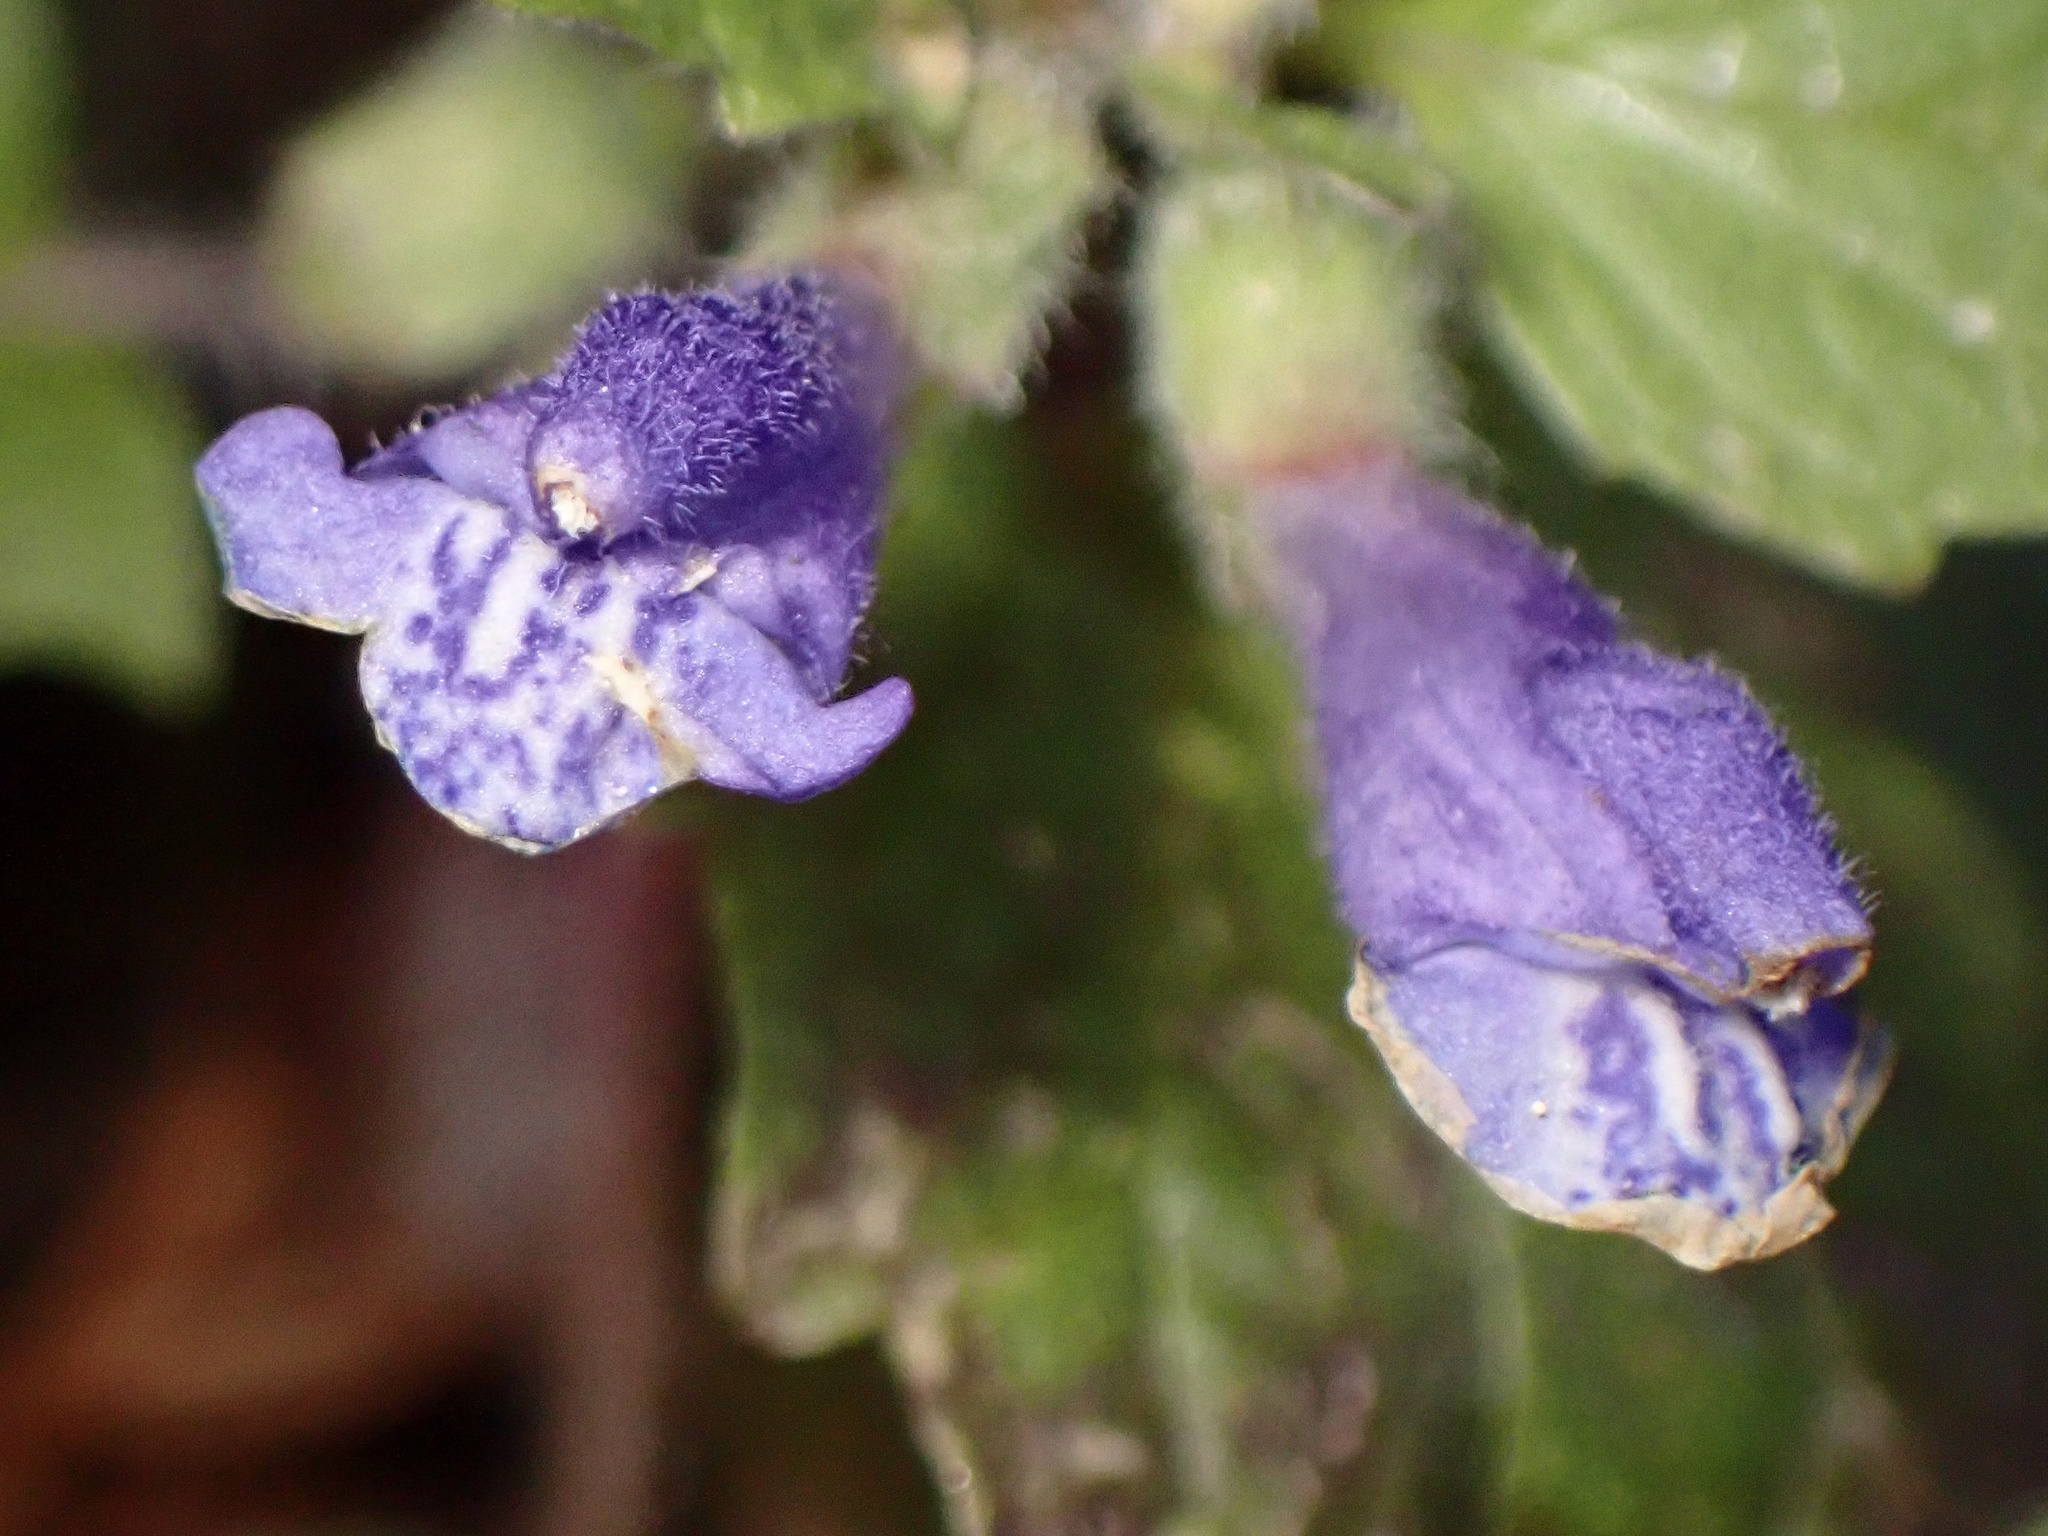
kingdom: Plantae
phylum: Tracheophyta
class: Magnoliopsida
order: Lamiales
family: Lamiaceae
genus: Scutellaria
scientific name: Scutellaria tuberosa
